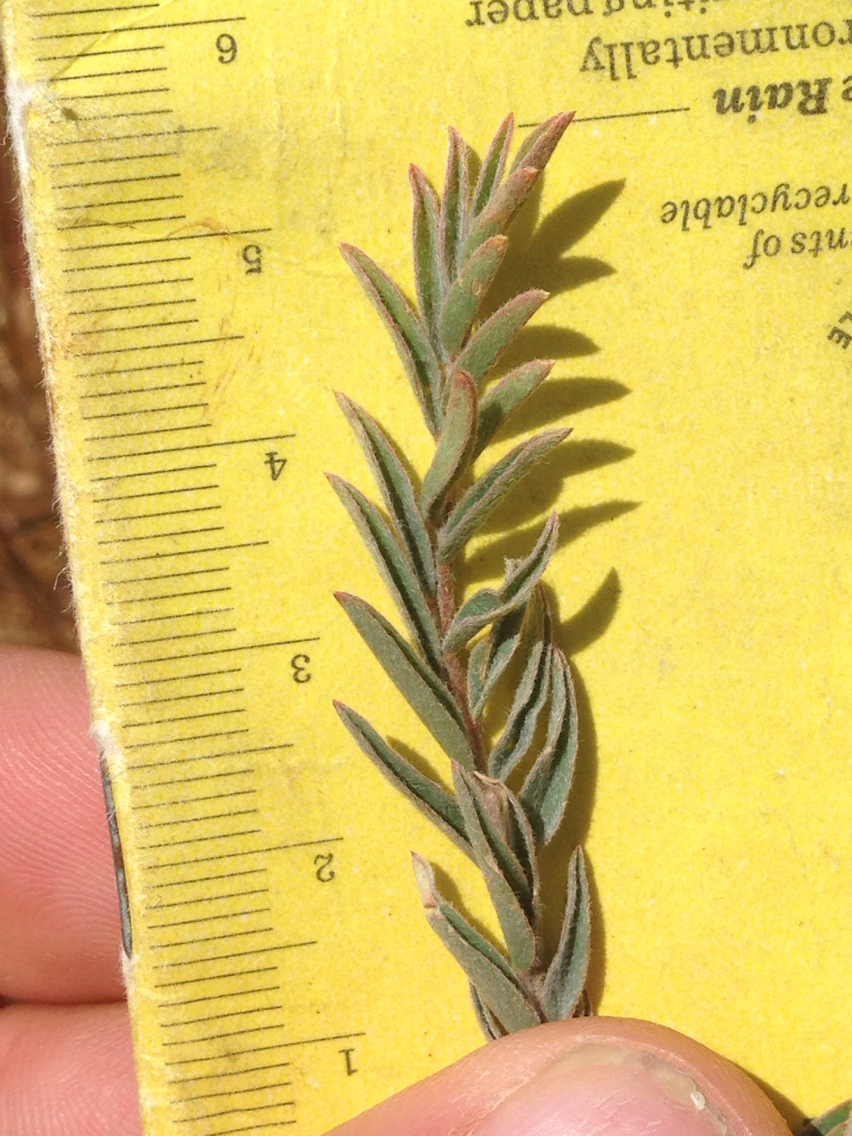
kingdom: Plantae
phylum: Tracheophyta
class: Magnoliopsida
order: Fabales
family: Fabaceae
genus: Astragalus
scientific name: Astragalus asymmetricus
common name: Horse locoweed
